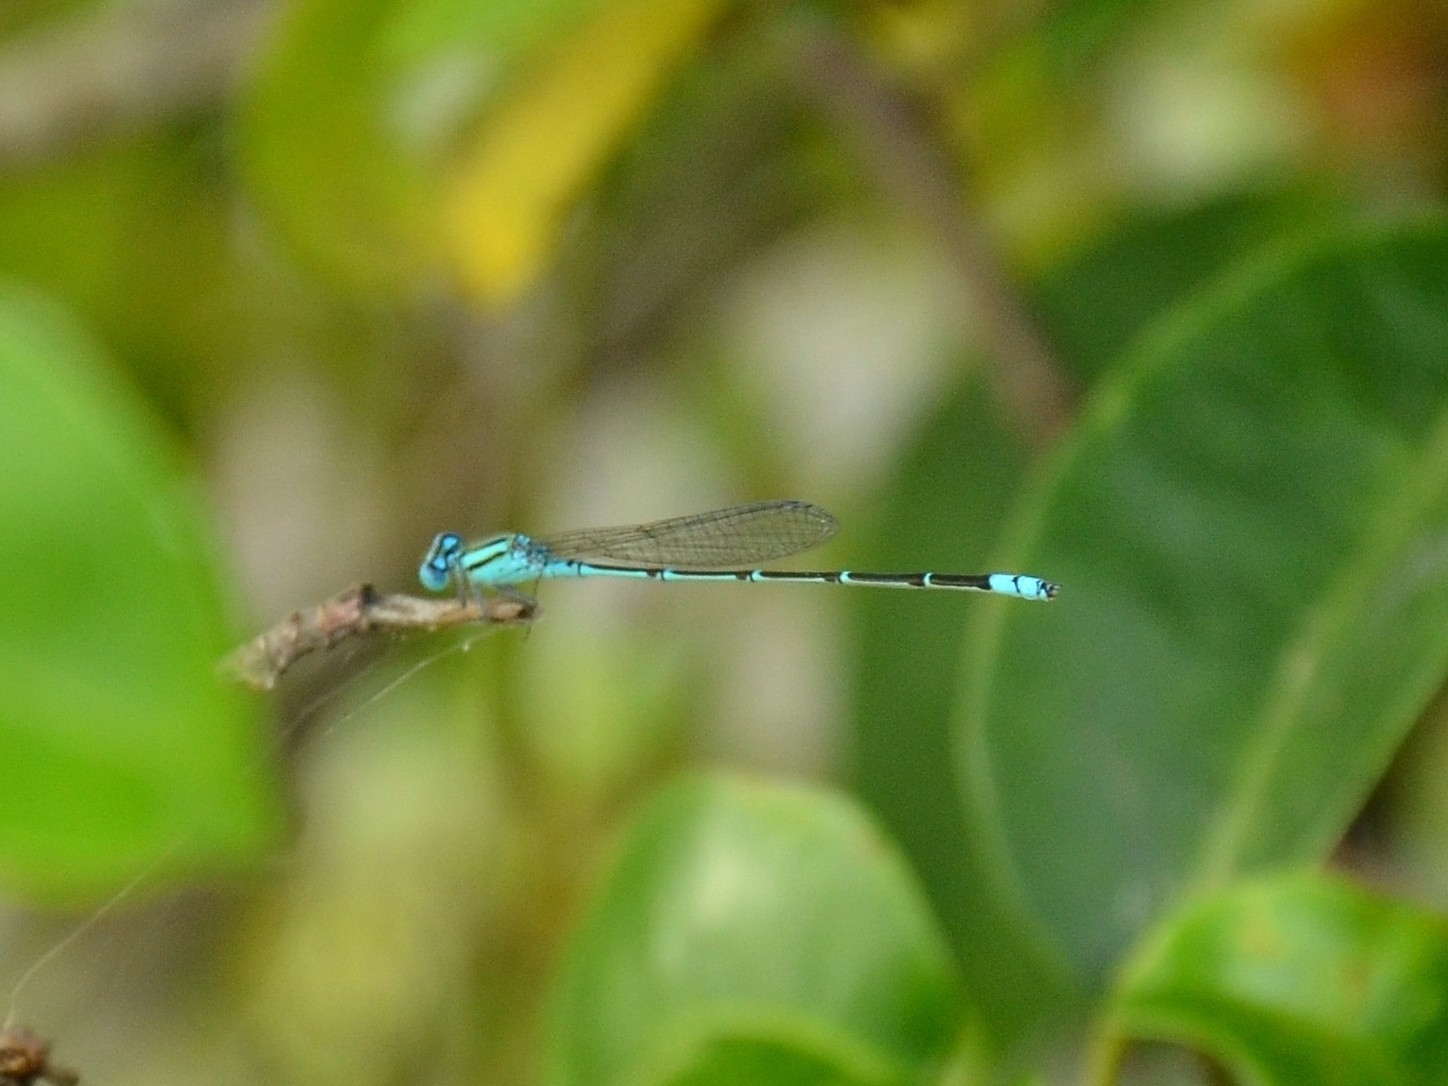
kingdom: Animalia
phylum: Arthropoda
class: Insecta
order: Odonata
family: Coenagrionidae
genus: Pseudagrion
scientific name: Pseudagrion microcephalum
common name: Blue riverdamsel
